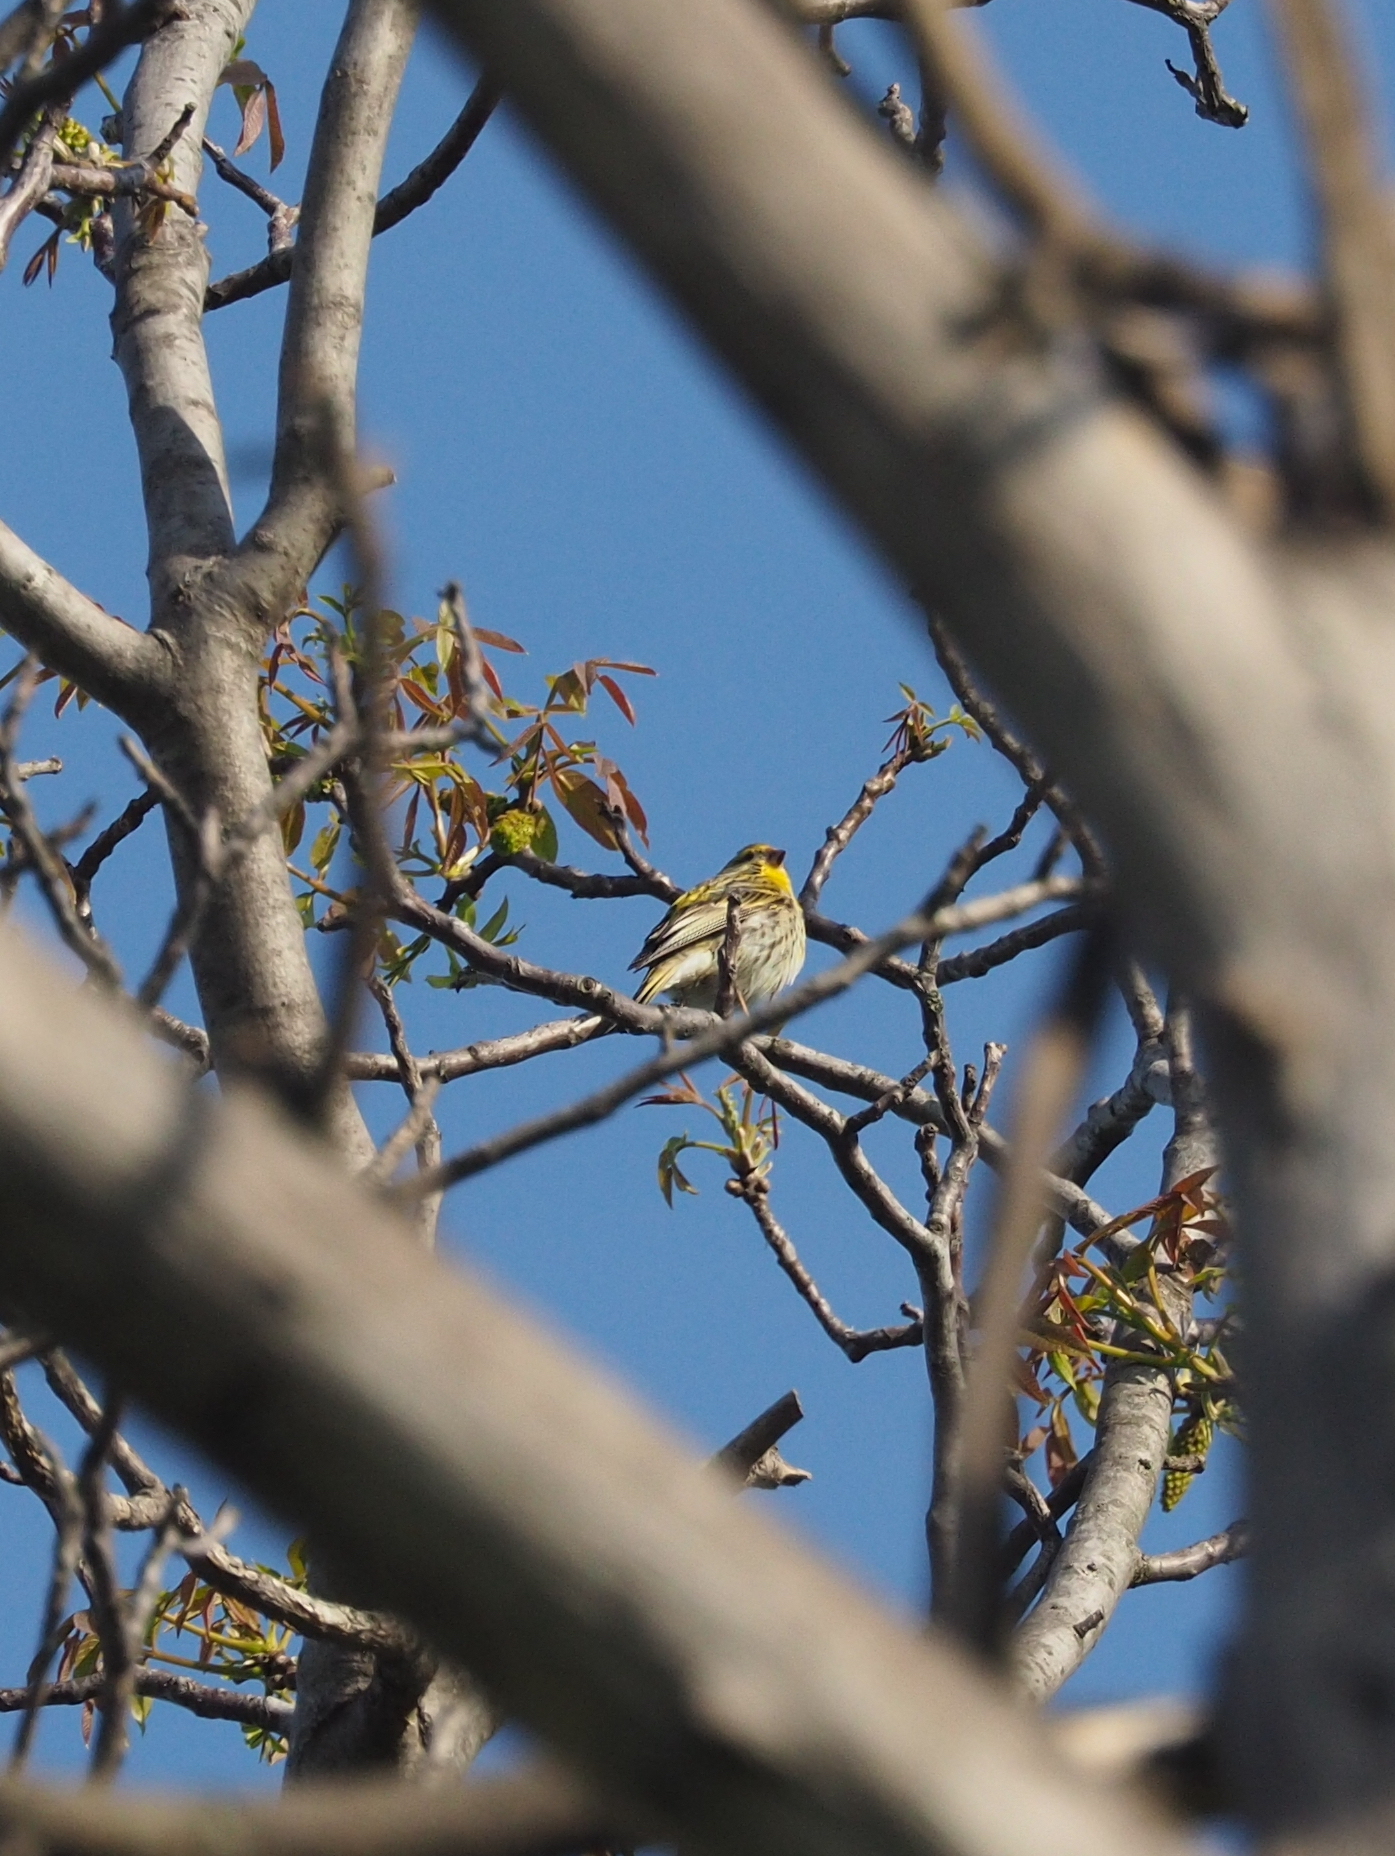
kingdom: Animalia
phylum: Chordata
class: Aves
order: Passeriformes
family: Fringillidae
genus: Serinus
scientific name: Serinus serinus
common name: European serin
